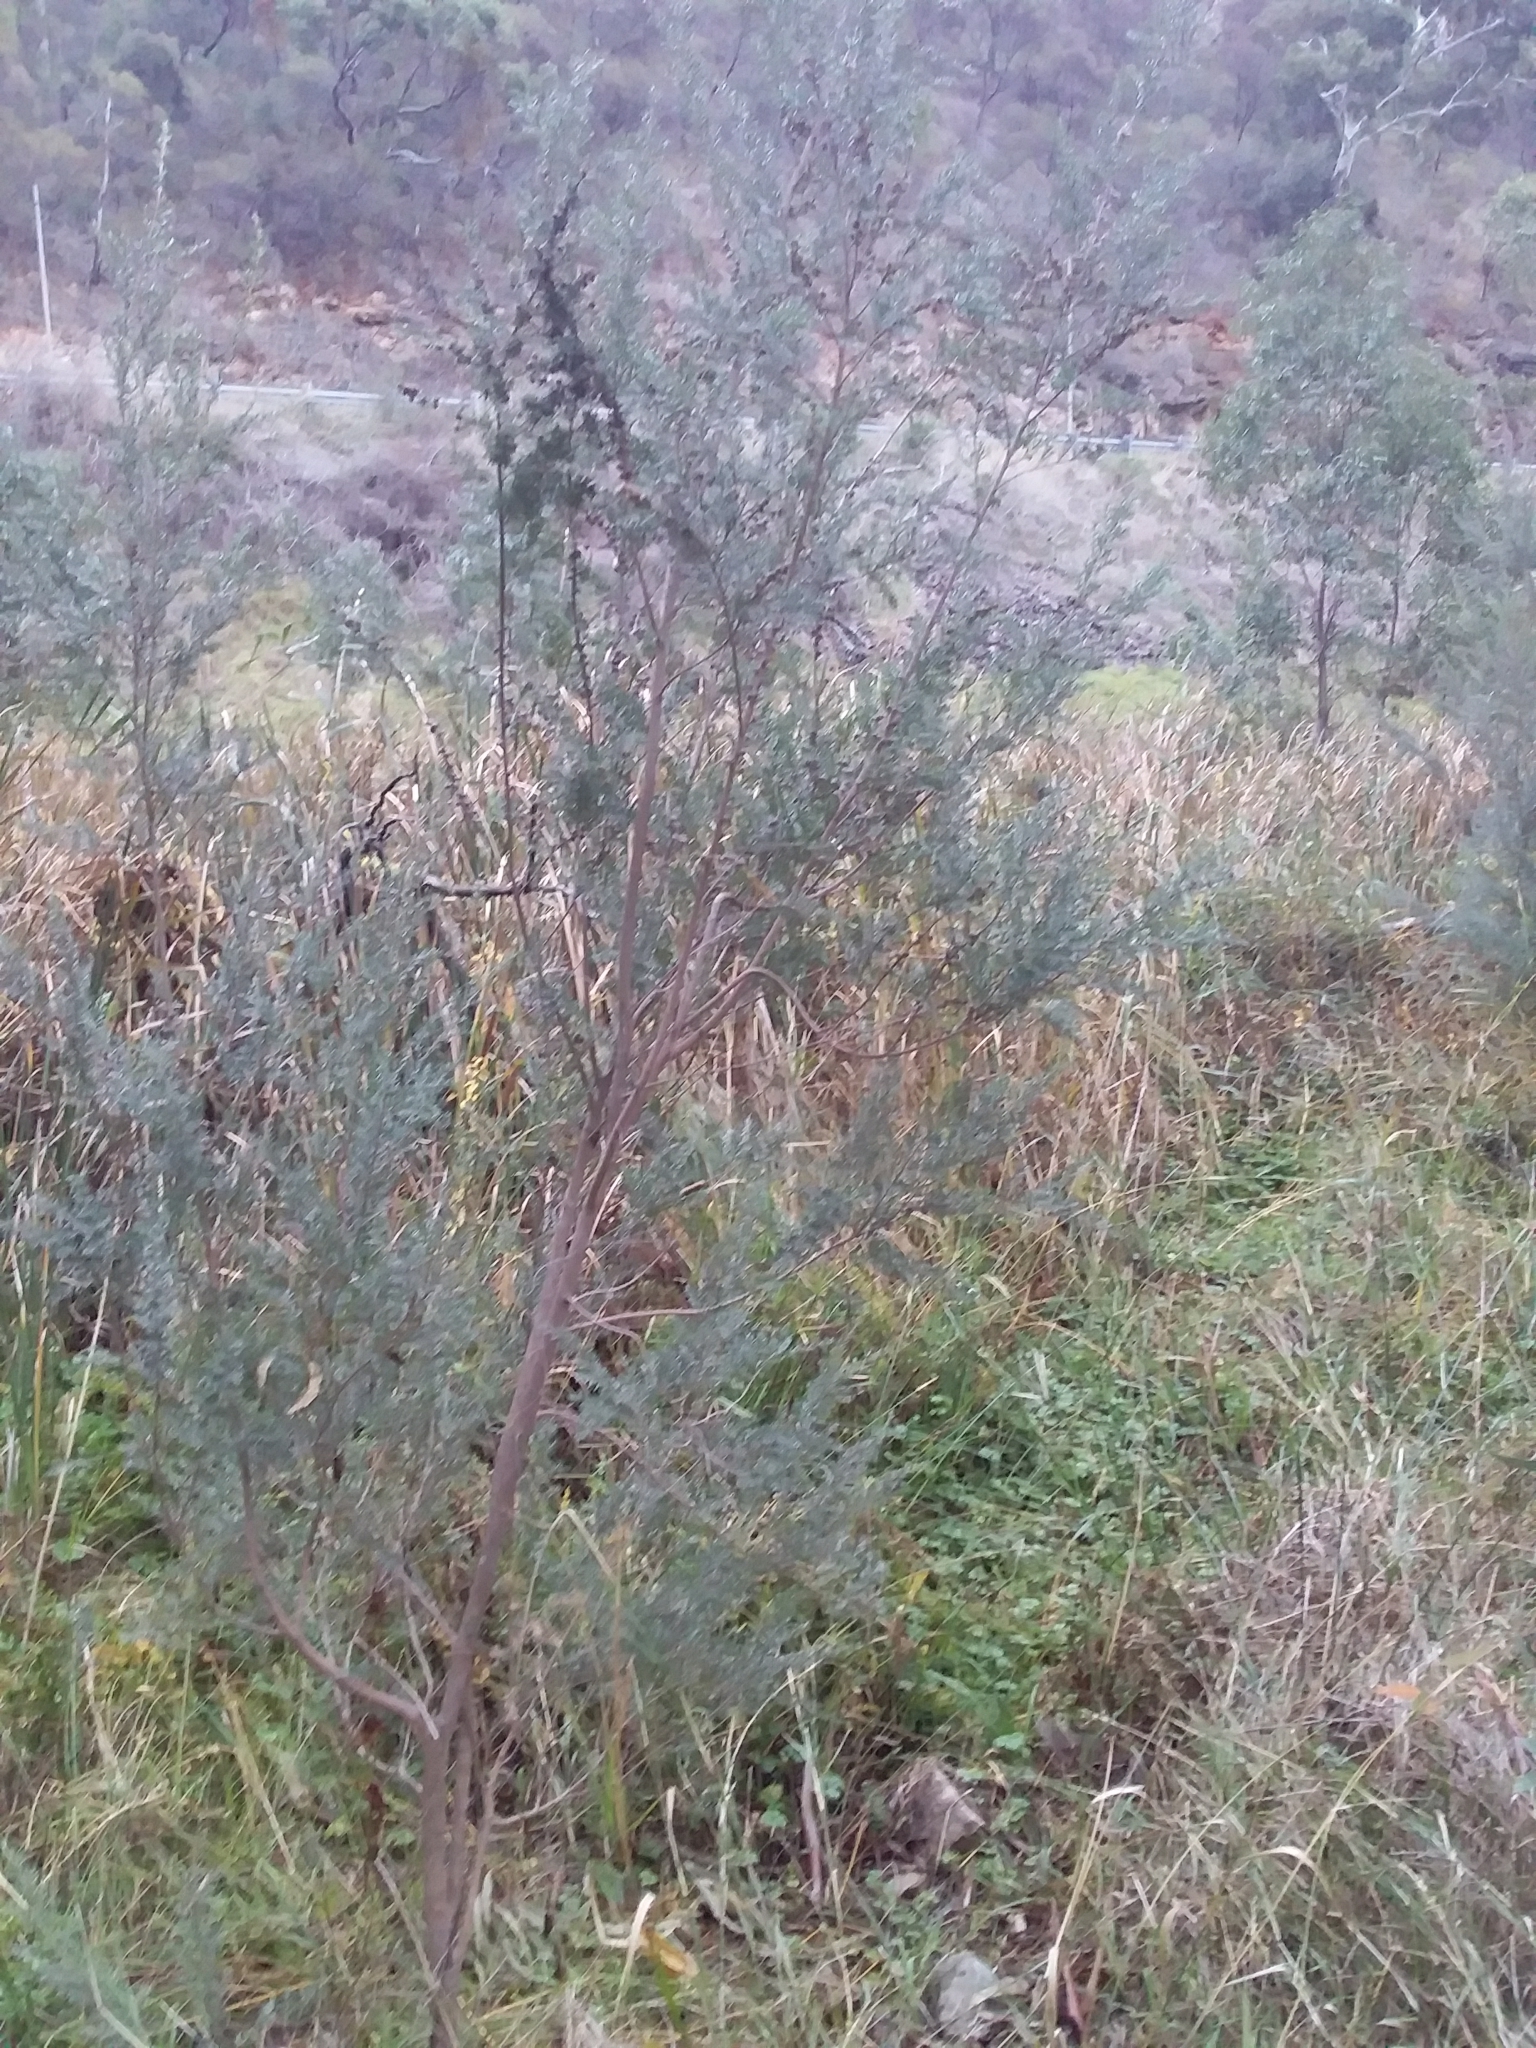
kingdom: Plantae
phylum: Tracheophyta
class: Magnoliopsida
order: Myrtales
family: Myrtaceae
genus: Leptospermum
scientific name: Leptospermum lanigerum
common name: Woolly tea-tree
